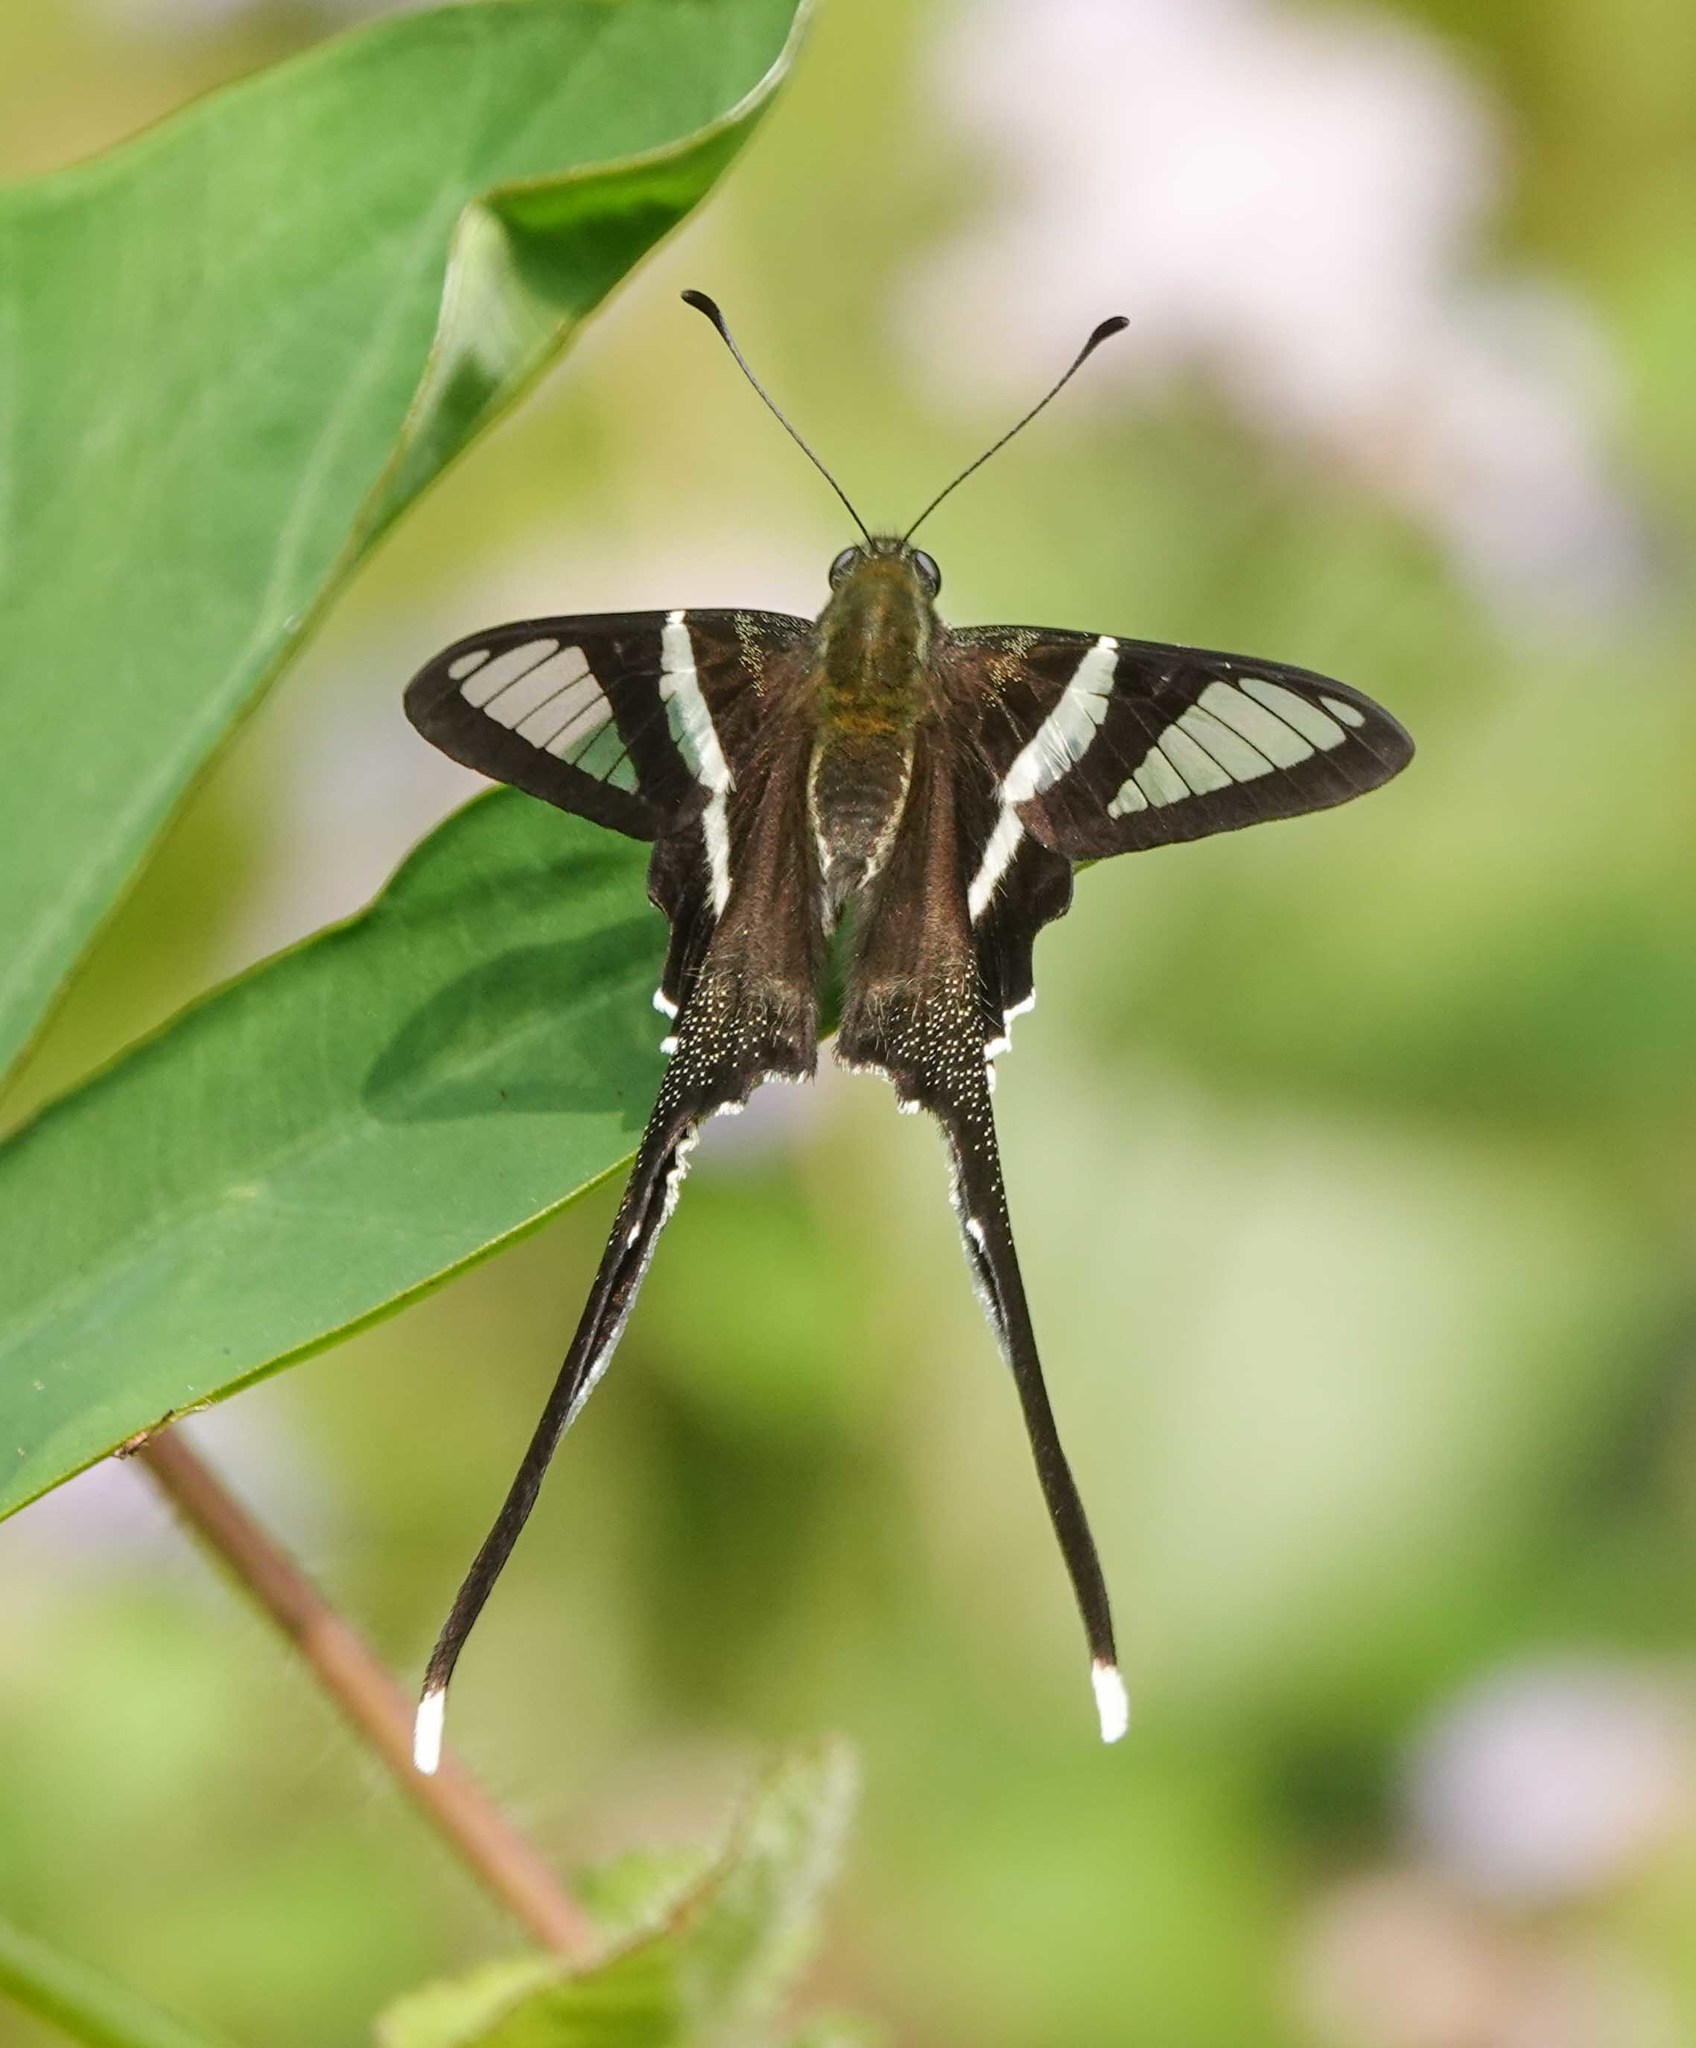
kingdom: Animalia
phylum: Arthropoda
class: Insecta
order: Lepidoptera
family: Papilionidae
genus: Lamproptera
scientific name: Lamproptera curius
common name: White dragontail
